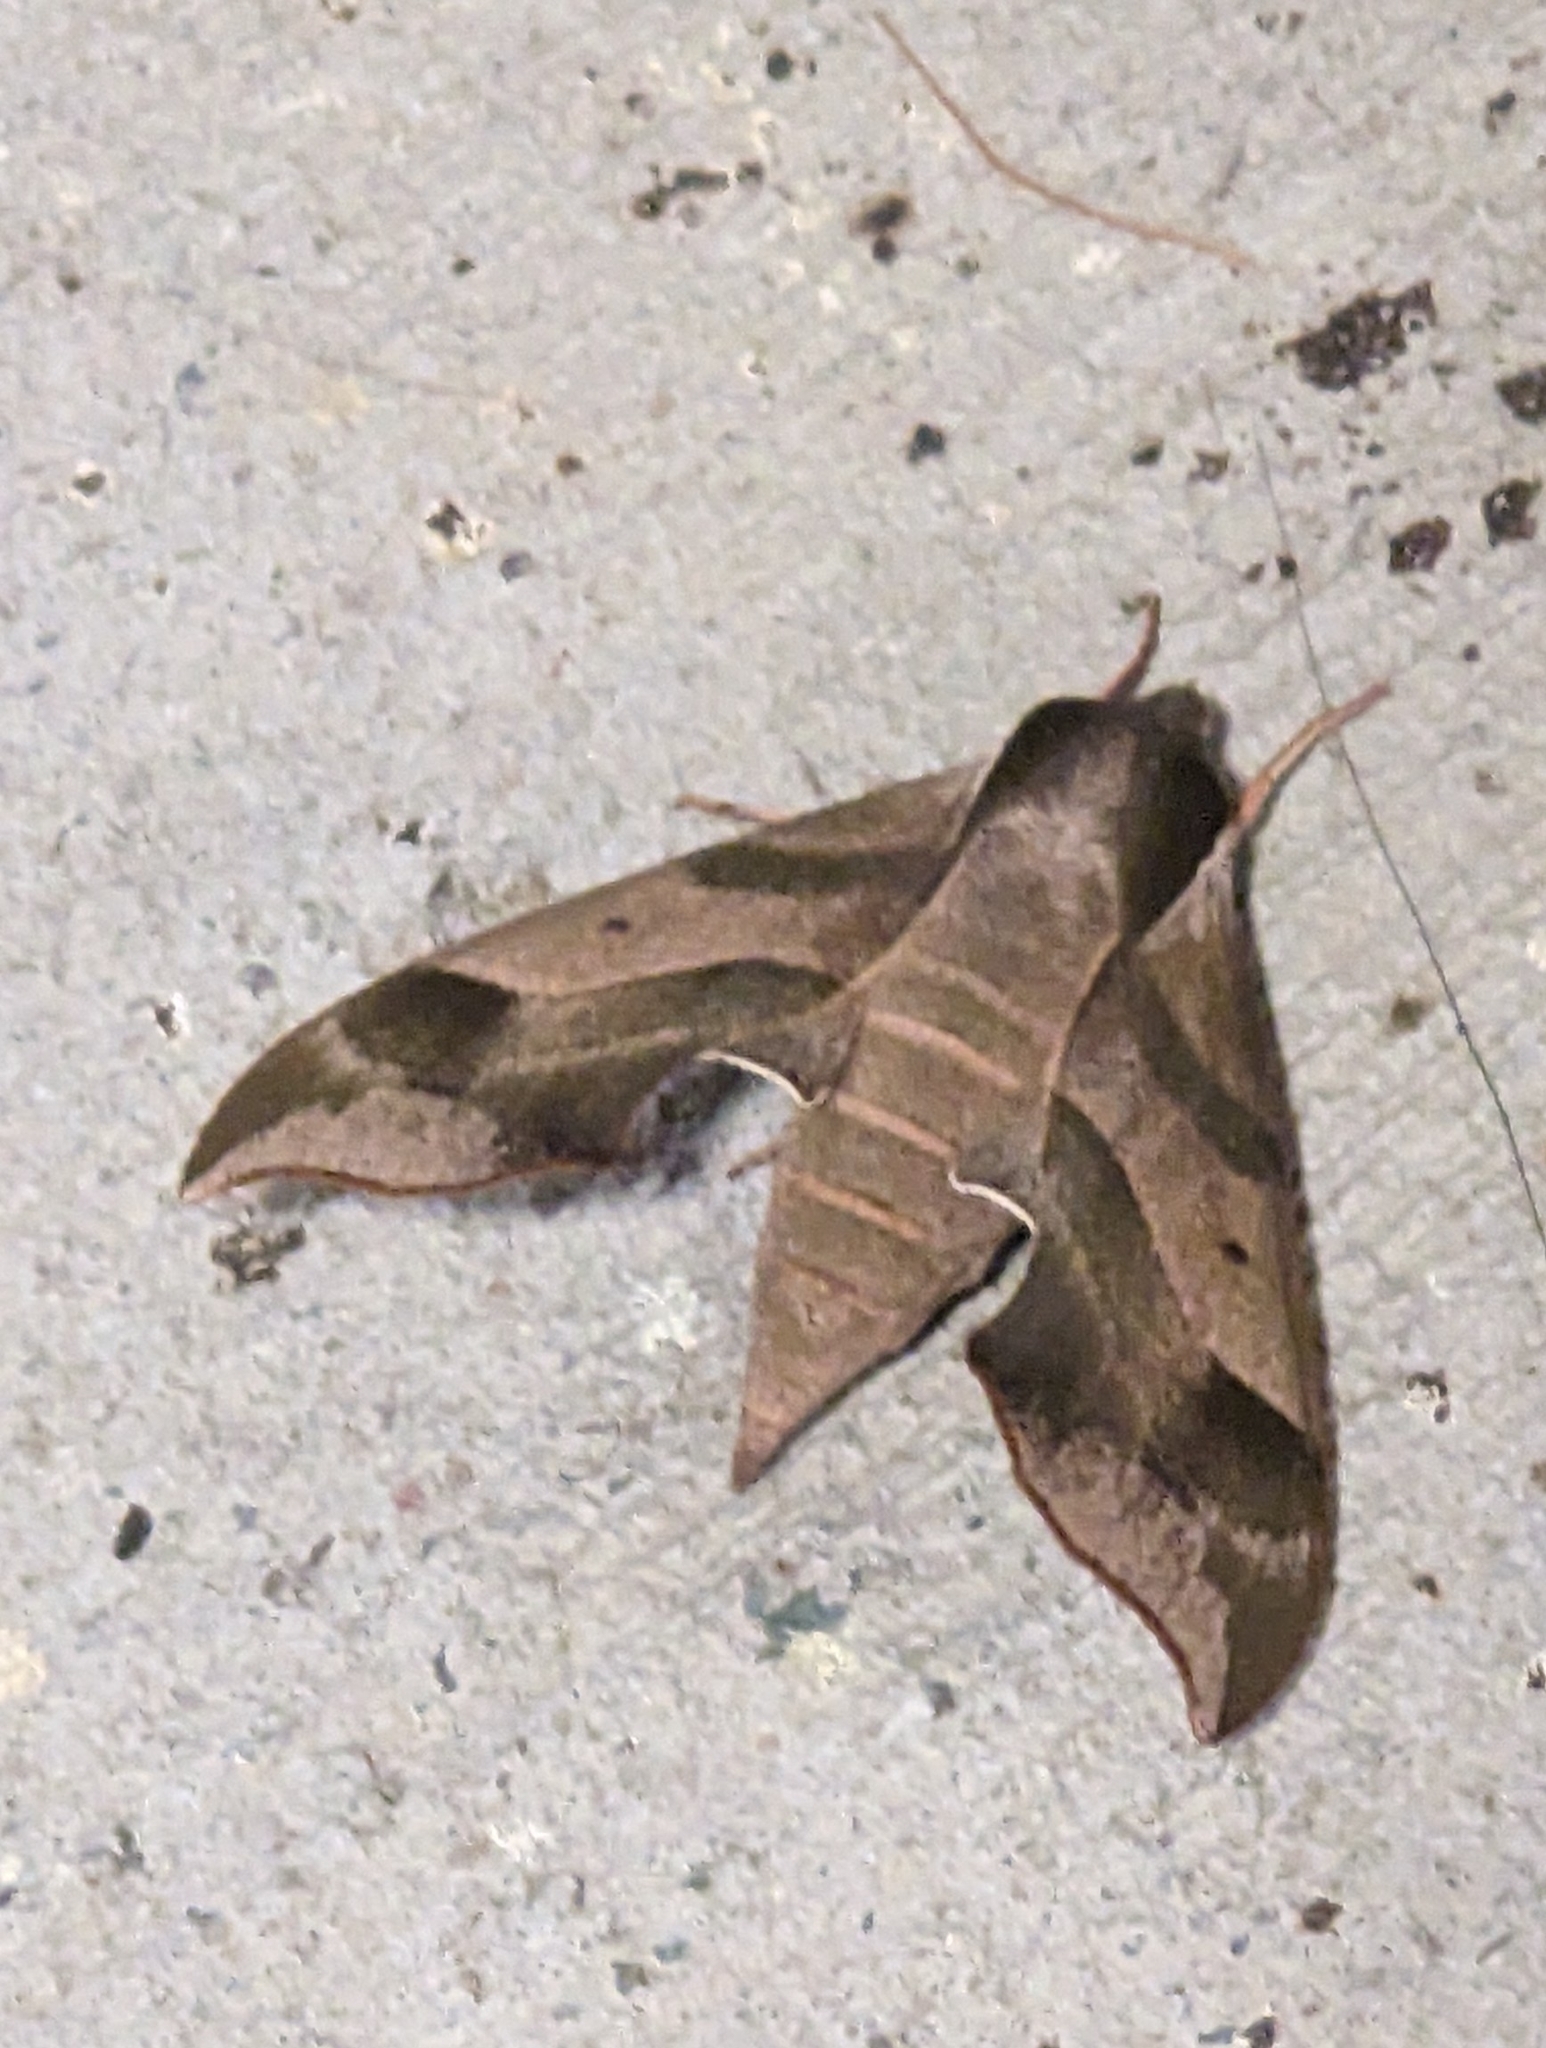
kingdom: Animalia
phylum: Arthropoda
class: Insecta
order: Lepidoptera
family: Sphingidae
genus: Darapsa
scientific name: Darapsa myron
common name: Hog sphinx
